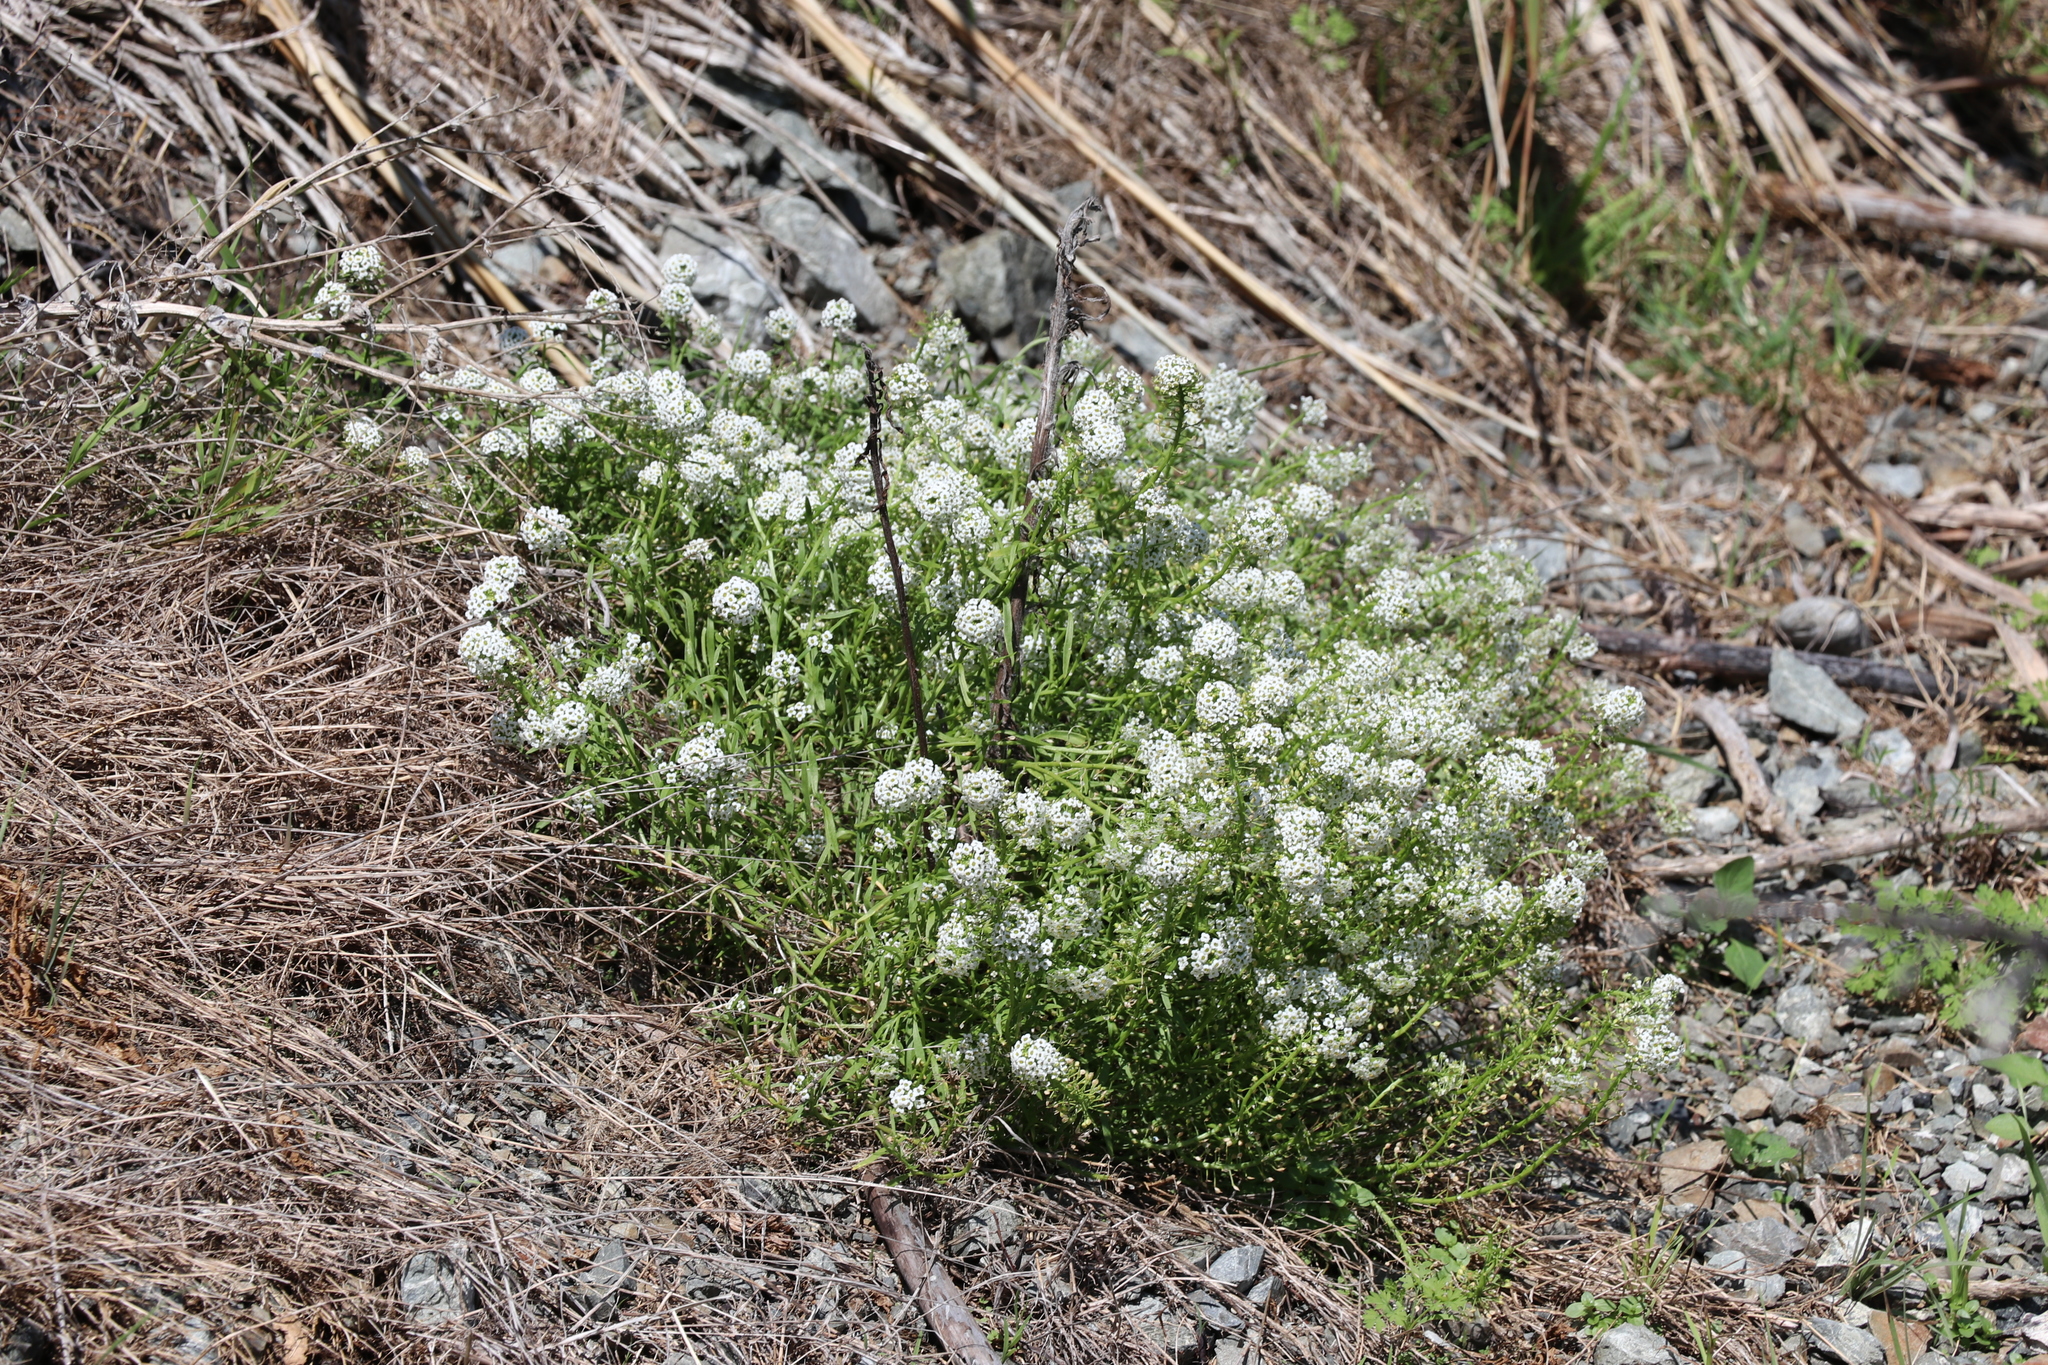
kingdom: Plantae
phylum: Tracheophyta
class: Magnoliopsida
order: Brassicales
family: Brassicaceae
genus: Lobularia
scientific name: Lobularia maritima
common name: Sweet alison
